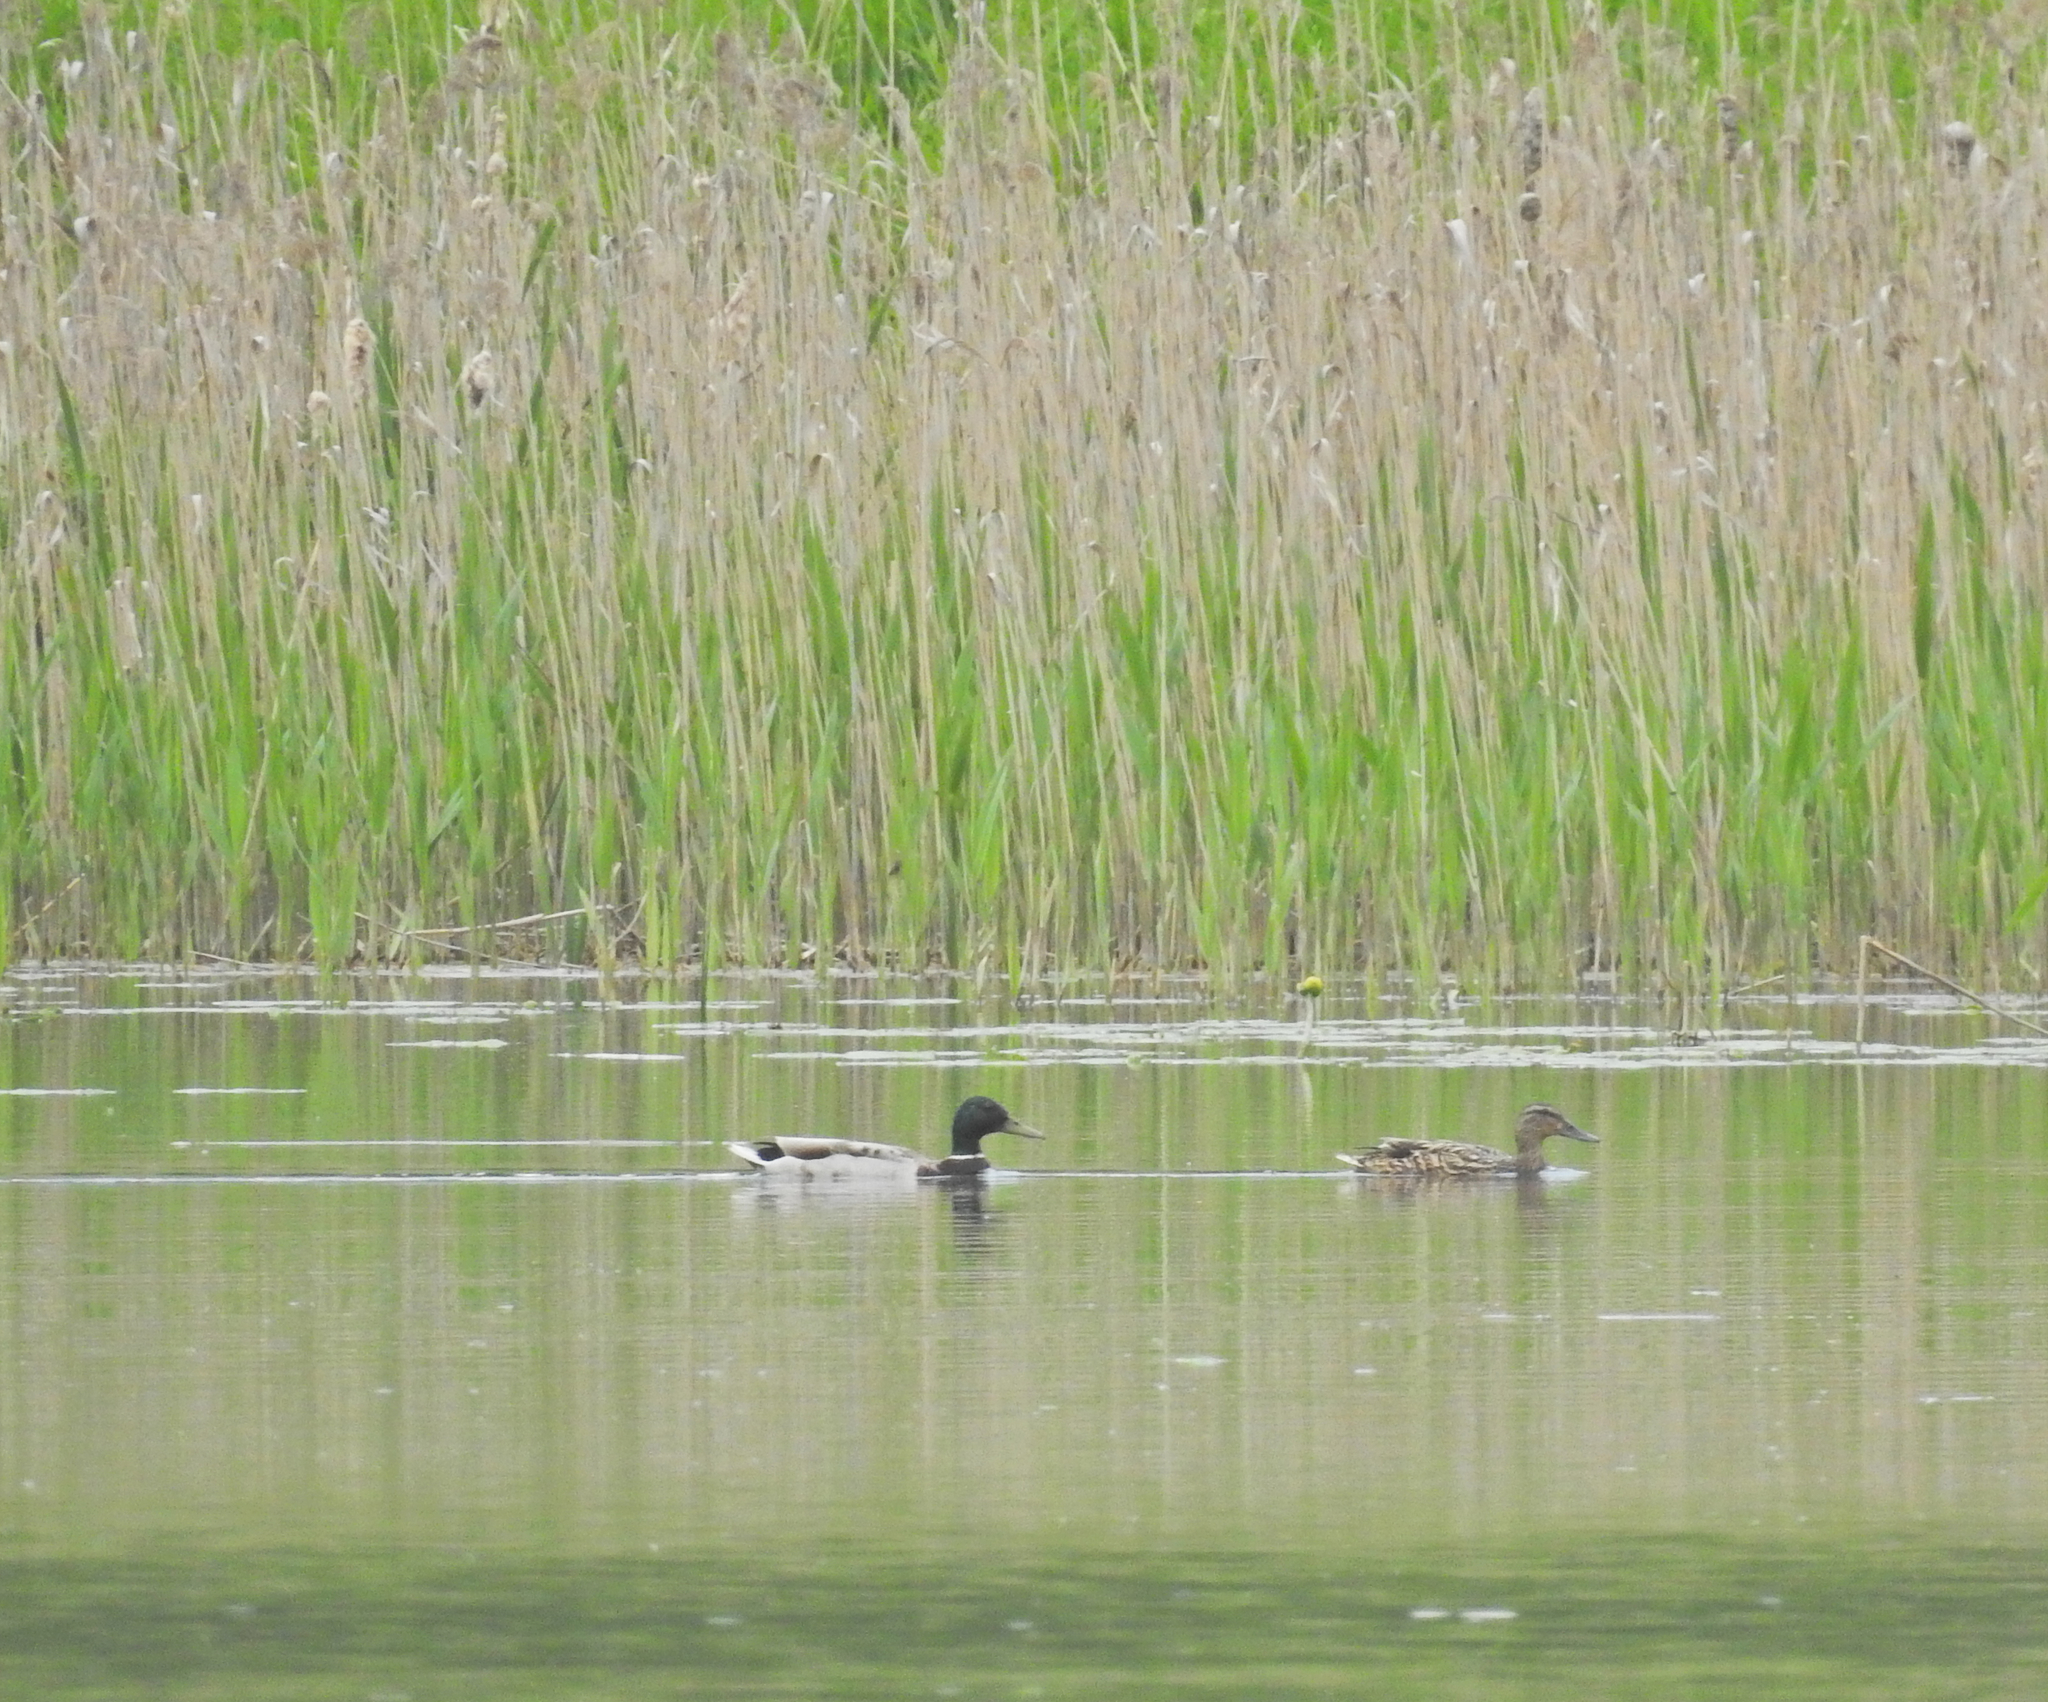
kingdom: Animalia
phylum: Chordata
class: Aves
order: Anseriformes
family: Anatidae
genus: Anas
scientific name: Anas platyrhynchos
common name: Mallard
